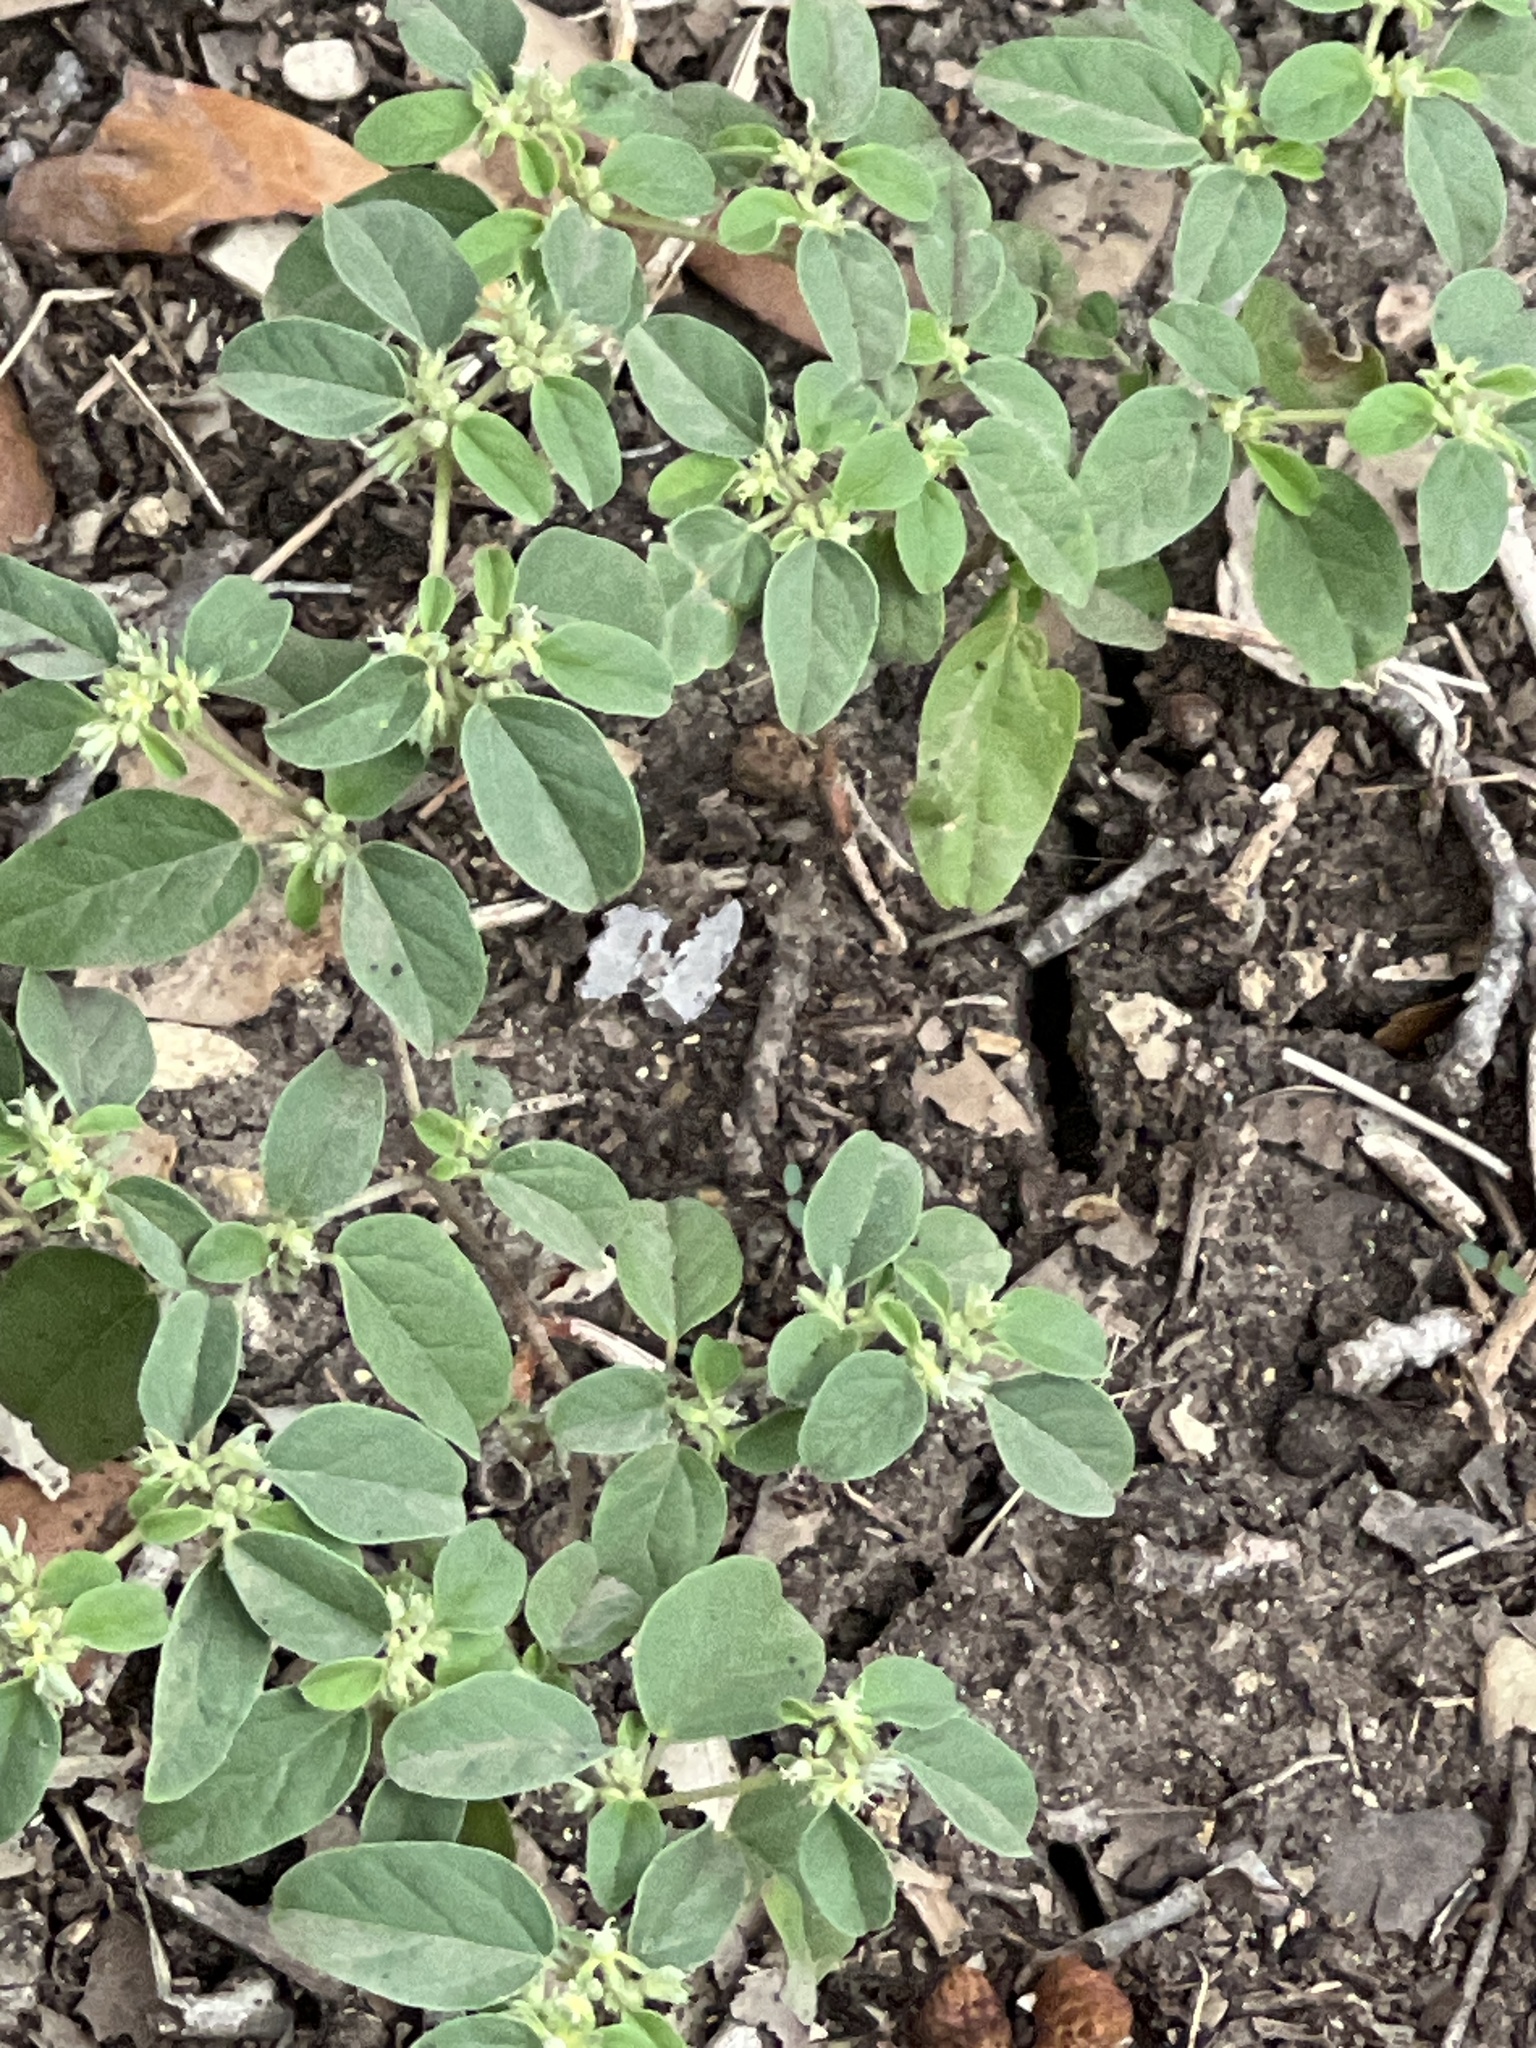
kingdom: Plantae
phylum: Tracheophyta
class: Magnoliopsida
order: Malpighiales
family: Euphorbiaceae
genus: Croton
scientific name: Croton monanthogynus
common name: One-seed croton
